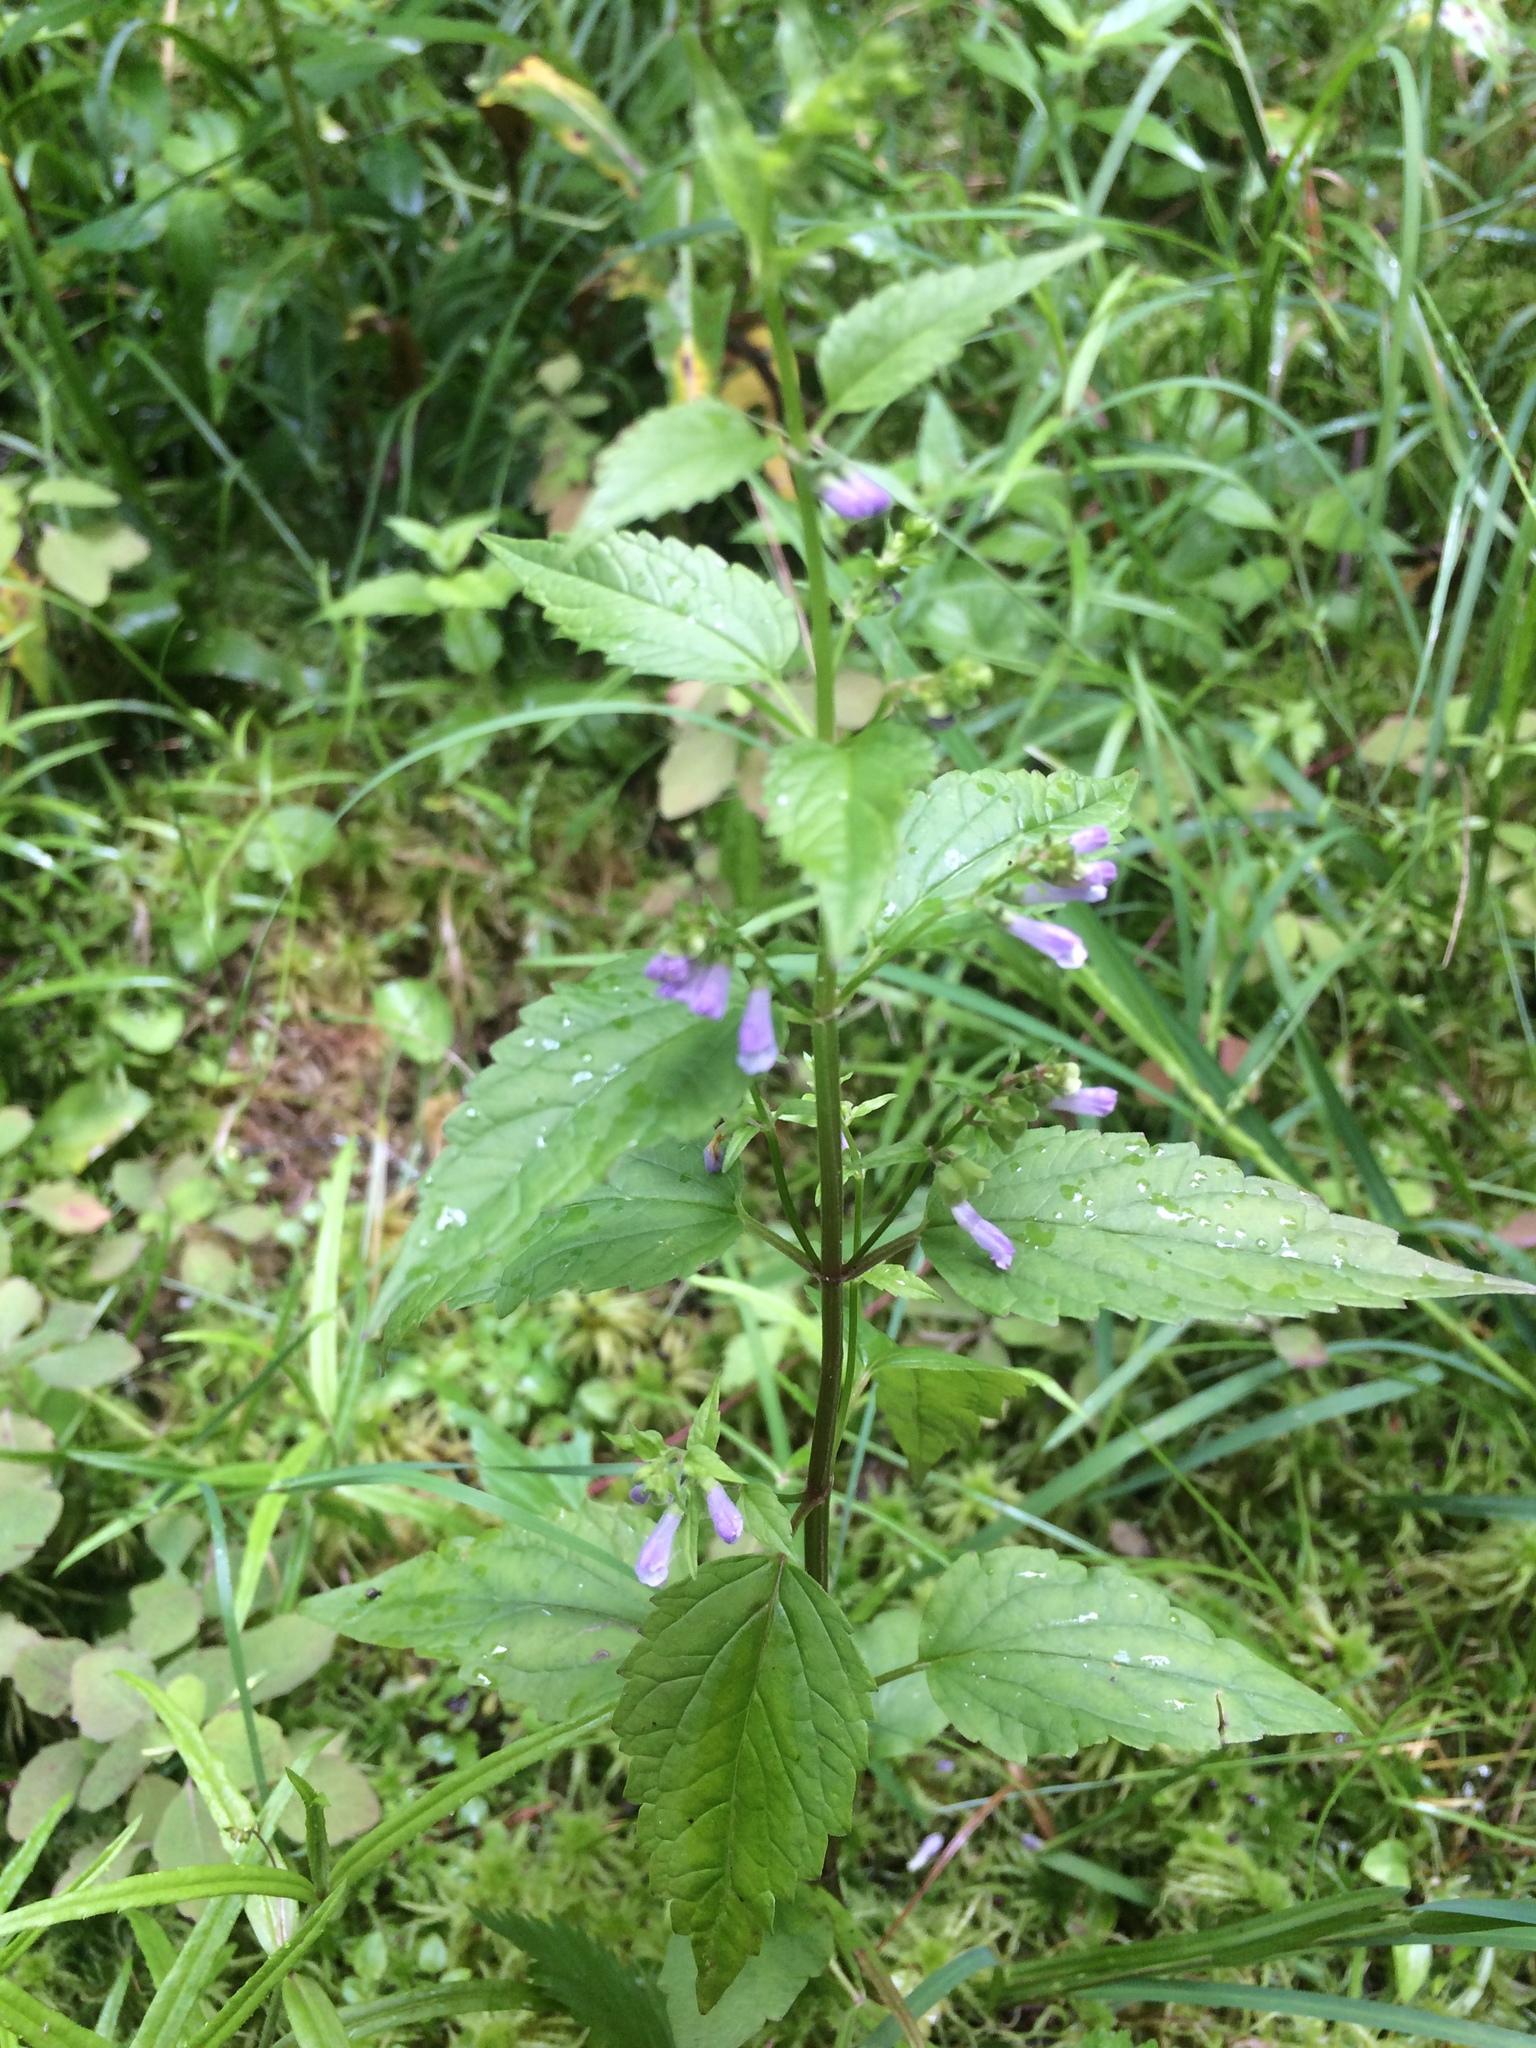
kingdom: Plantae
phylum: Tracheophyta
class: Magnoliopsida
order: Lamiales
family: Lamiaceae
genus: Scutellaria
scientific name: Scutellaria lateriflora
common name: Blue skullcap
